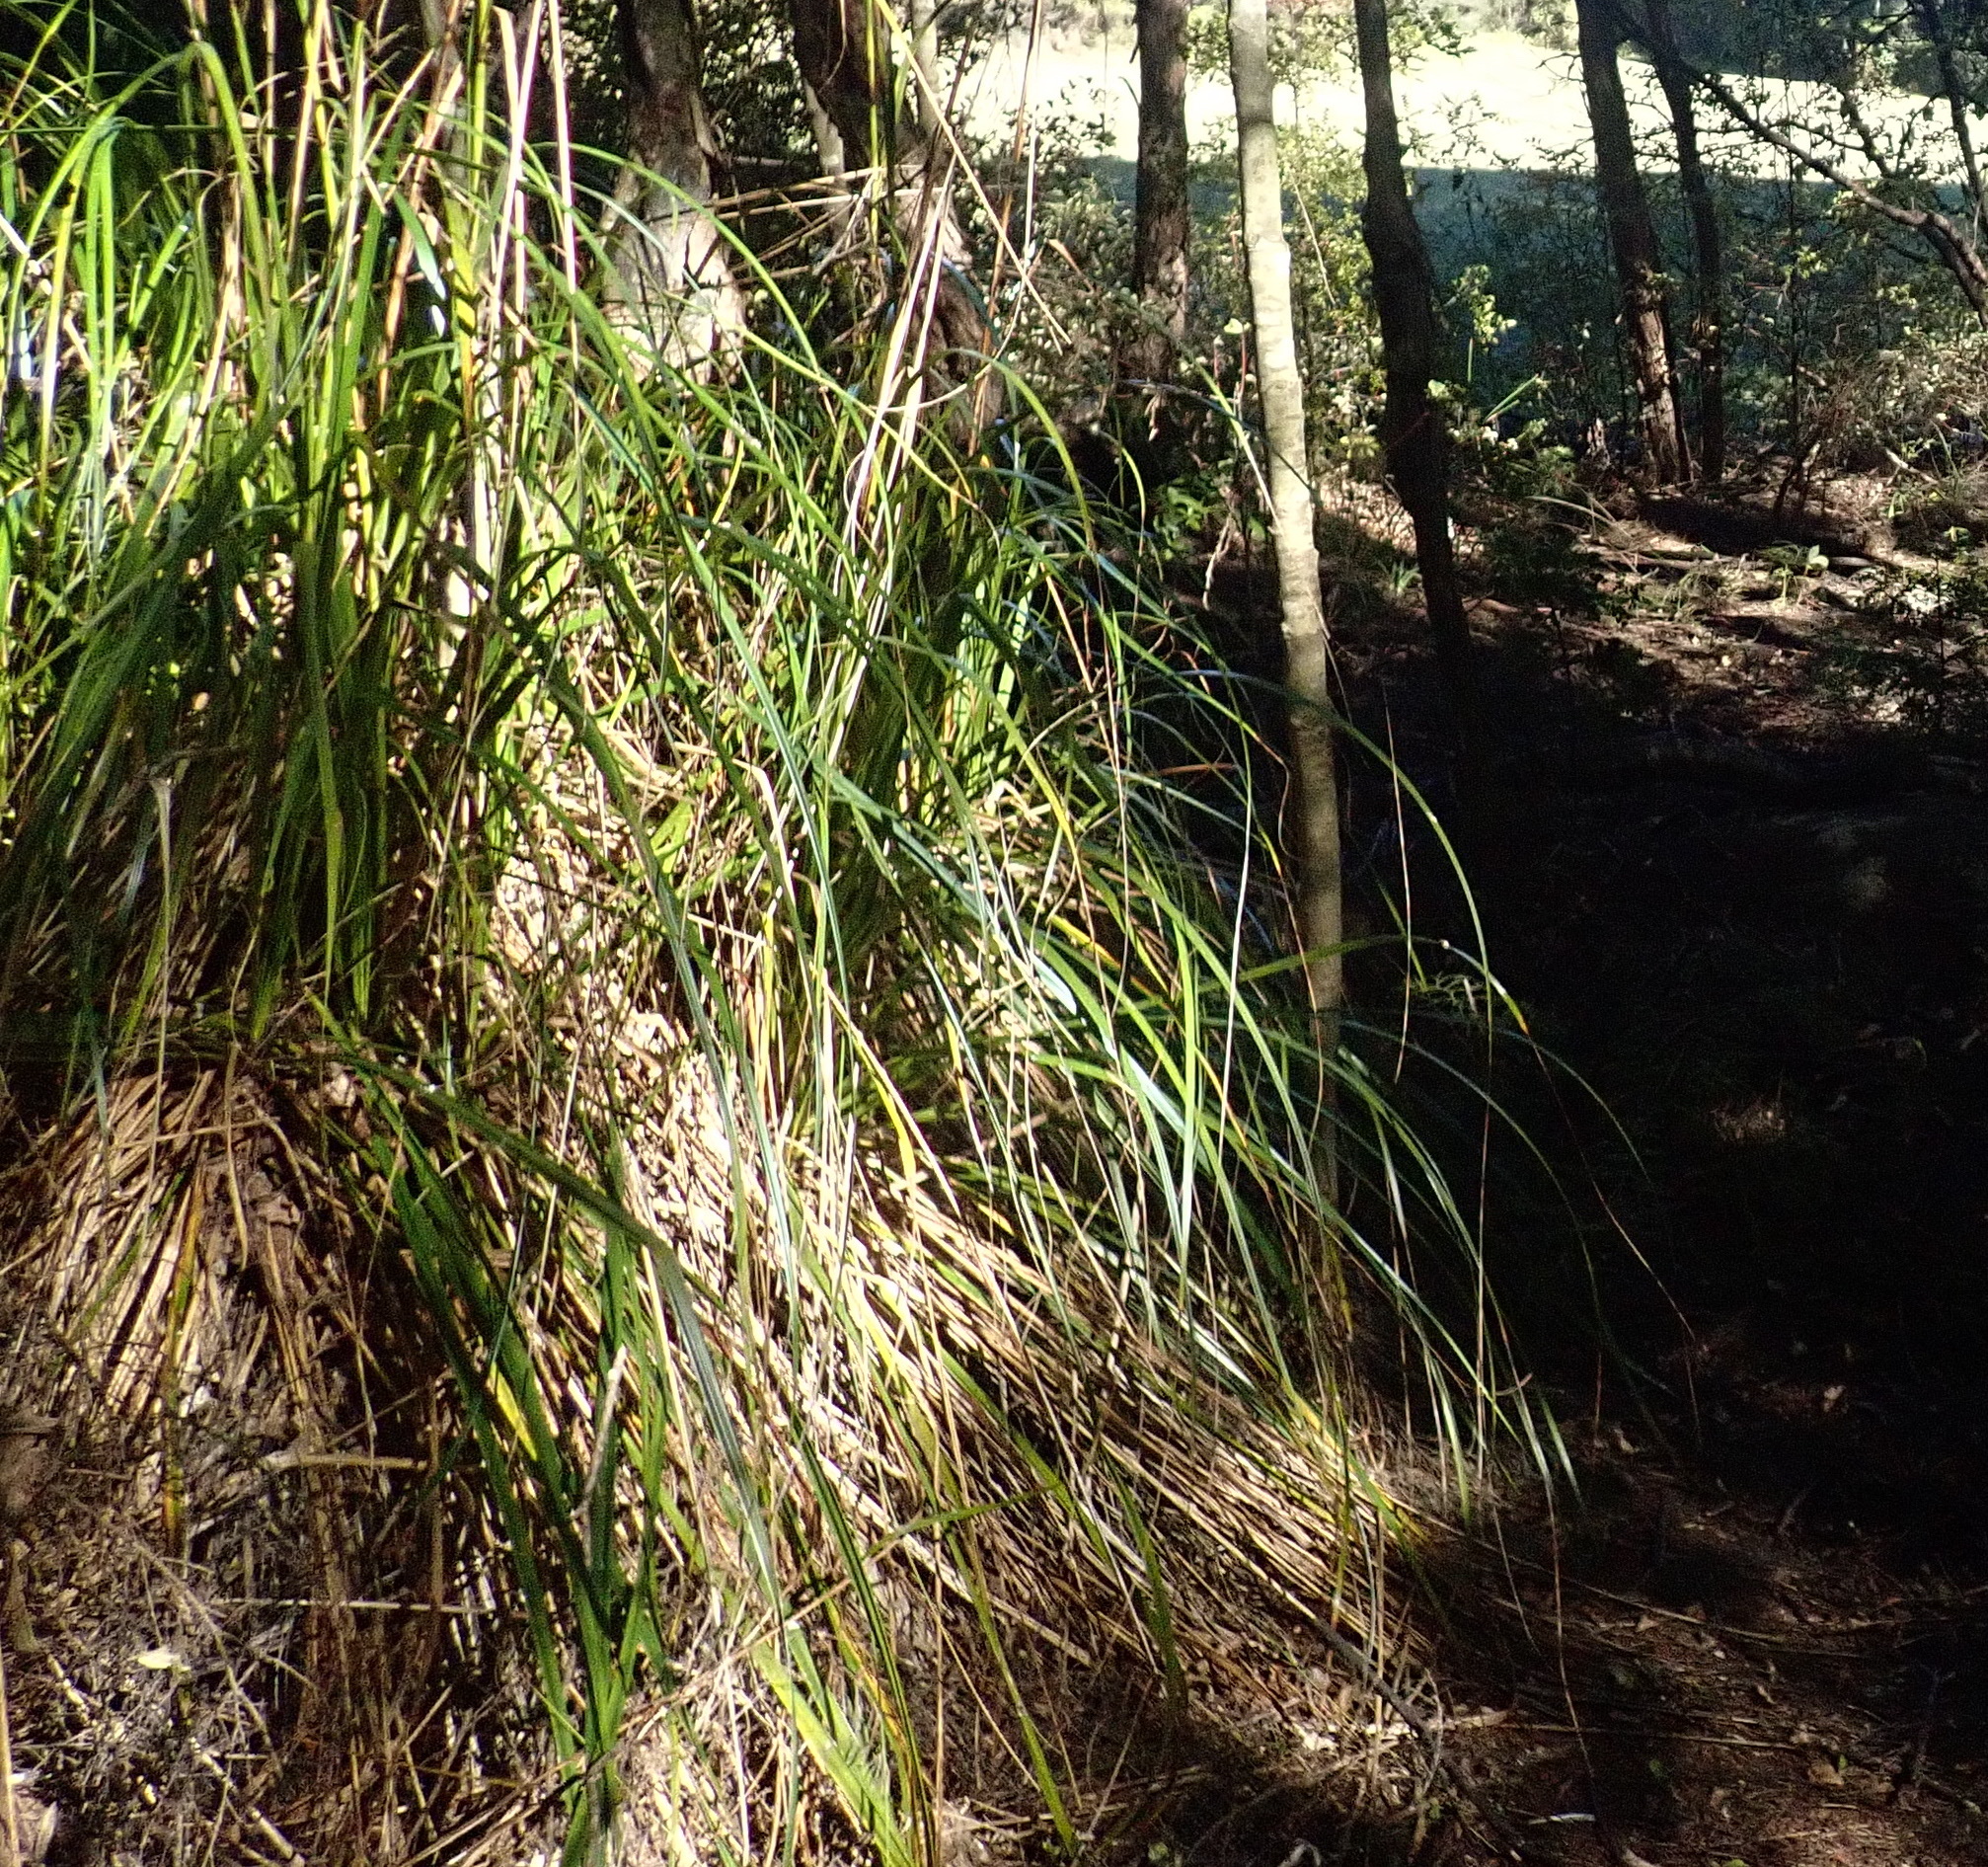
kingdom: Plantae
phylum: Tracheophyta
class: Liliopsida
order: Poales
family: Cyperaceae
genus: Gahnia
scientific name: Gahnia xanthocarpa
